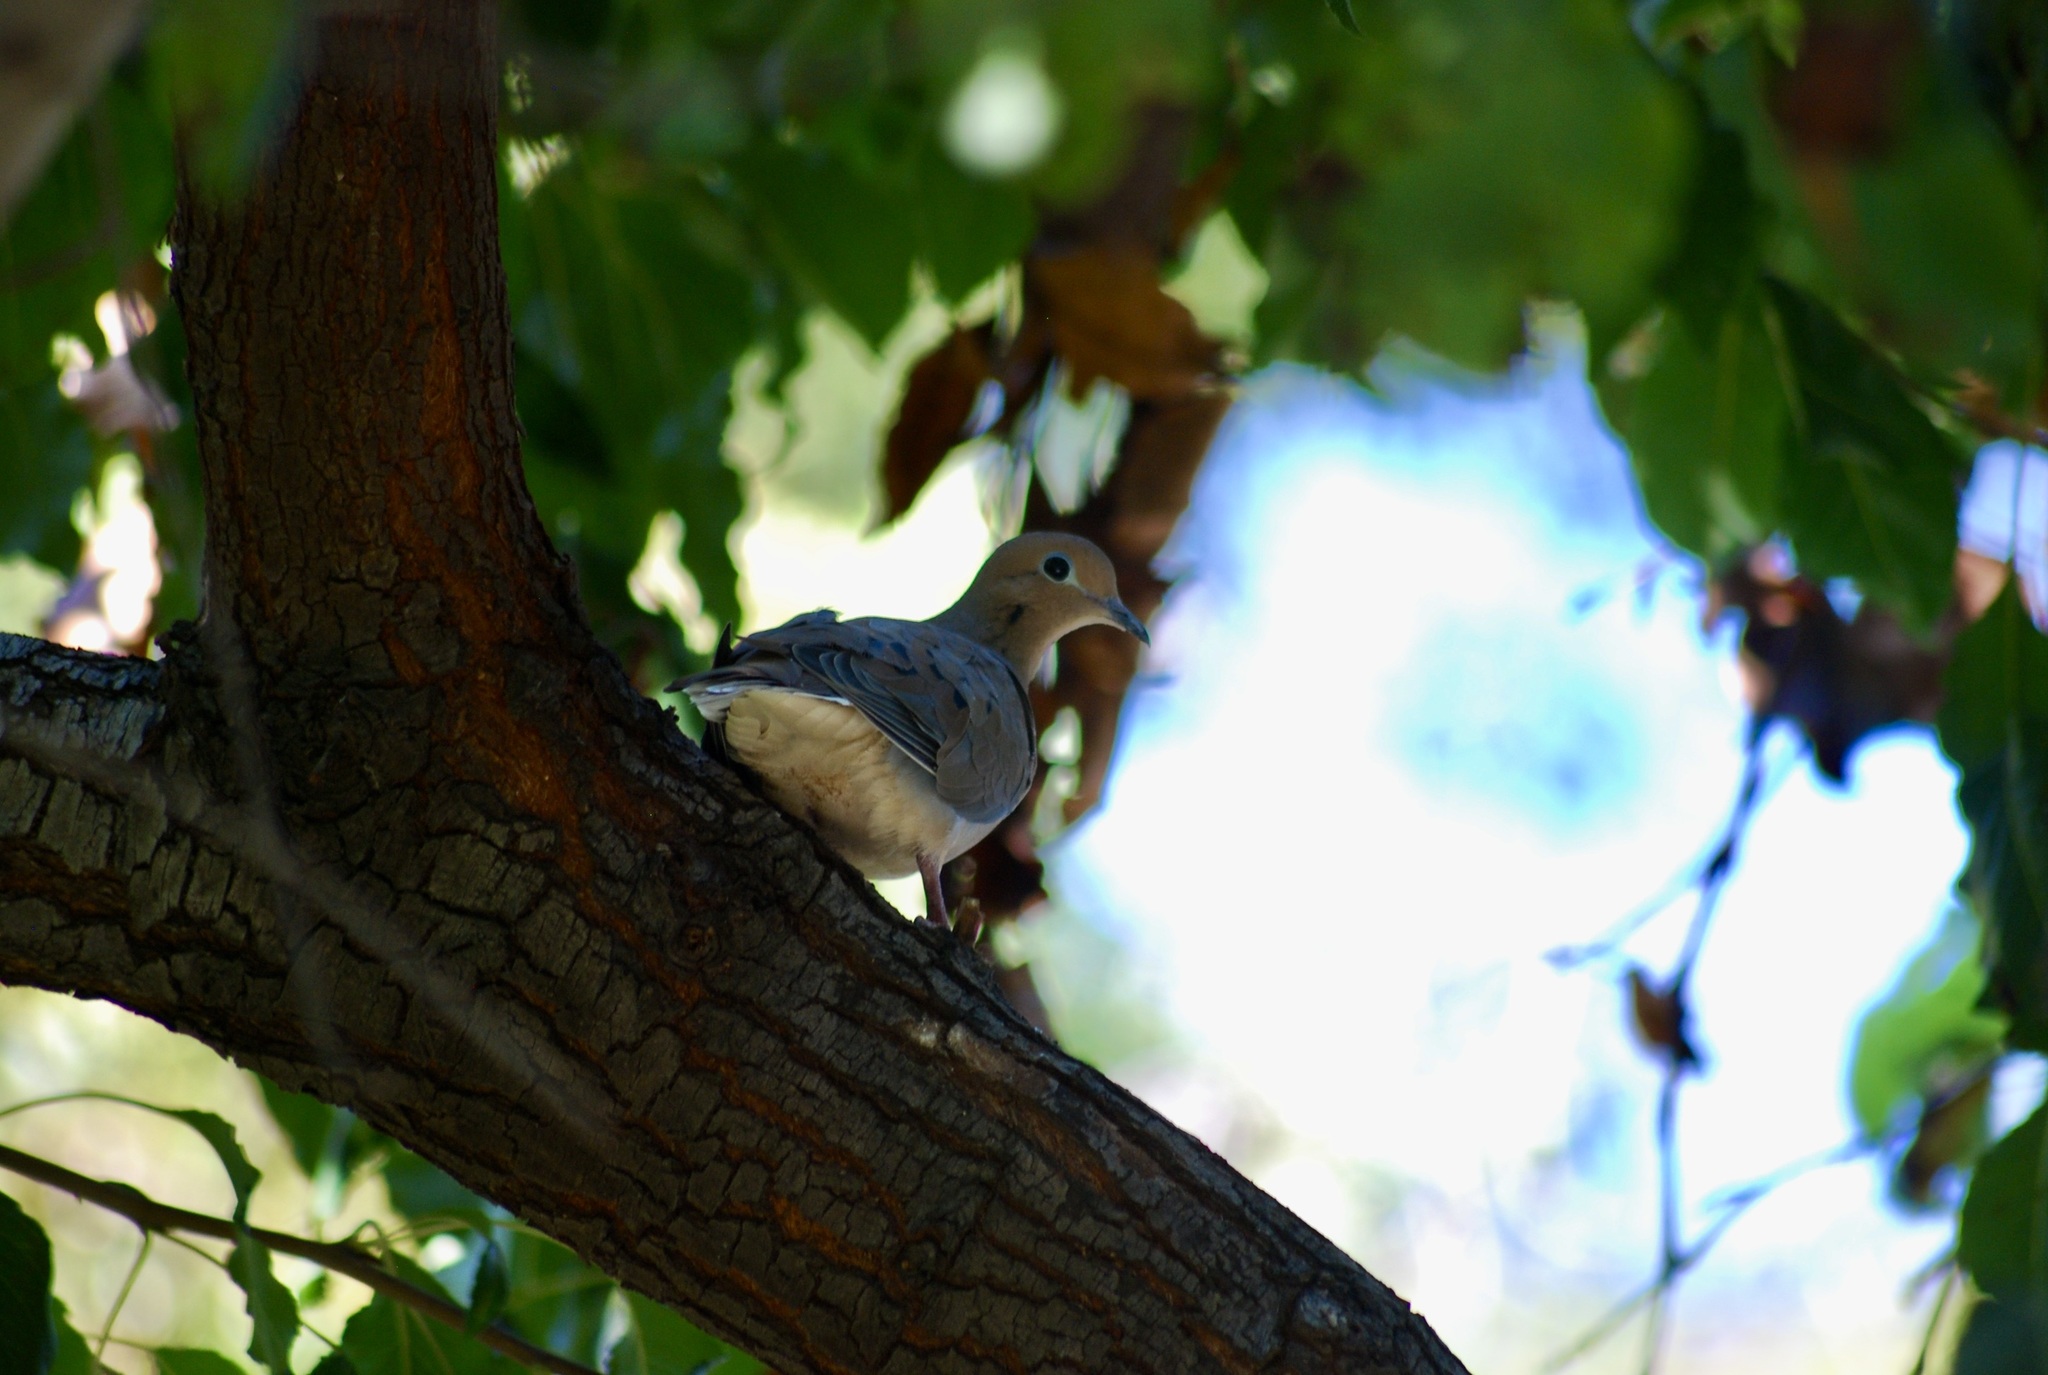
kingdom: Animalia
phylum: Chordata
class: Aves
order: Columbiformes
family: Columbidae
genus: Zenaida
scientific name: Zenaida macroura
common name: Mourning dove
